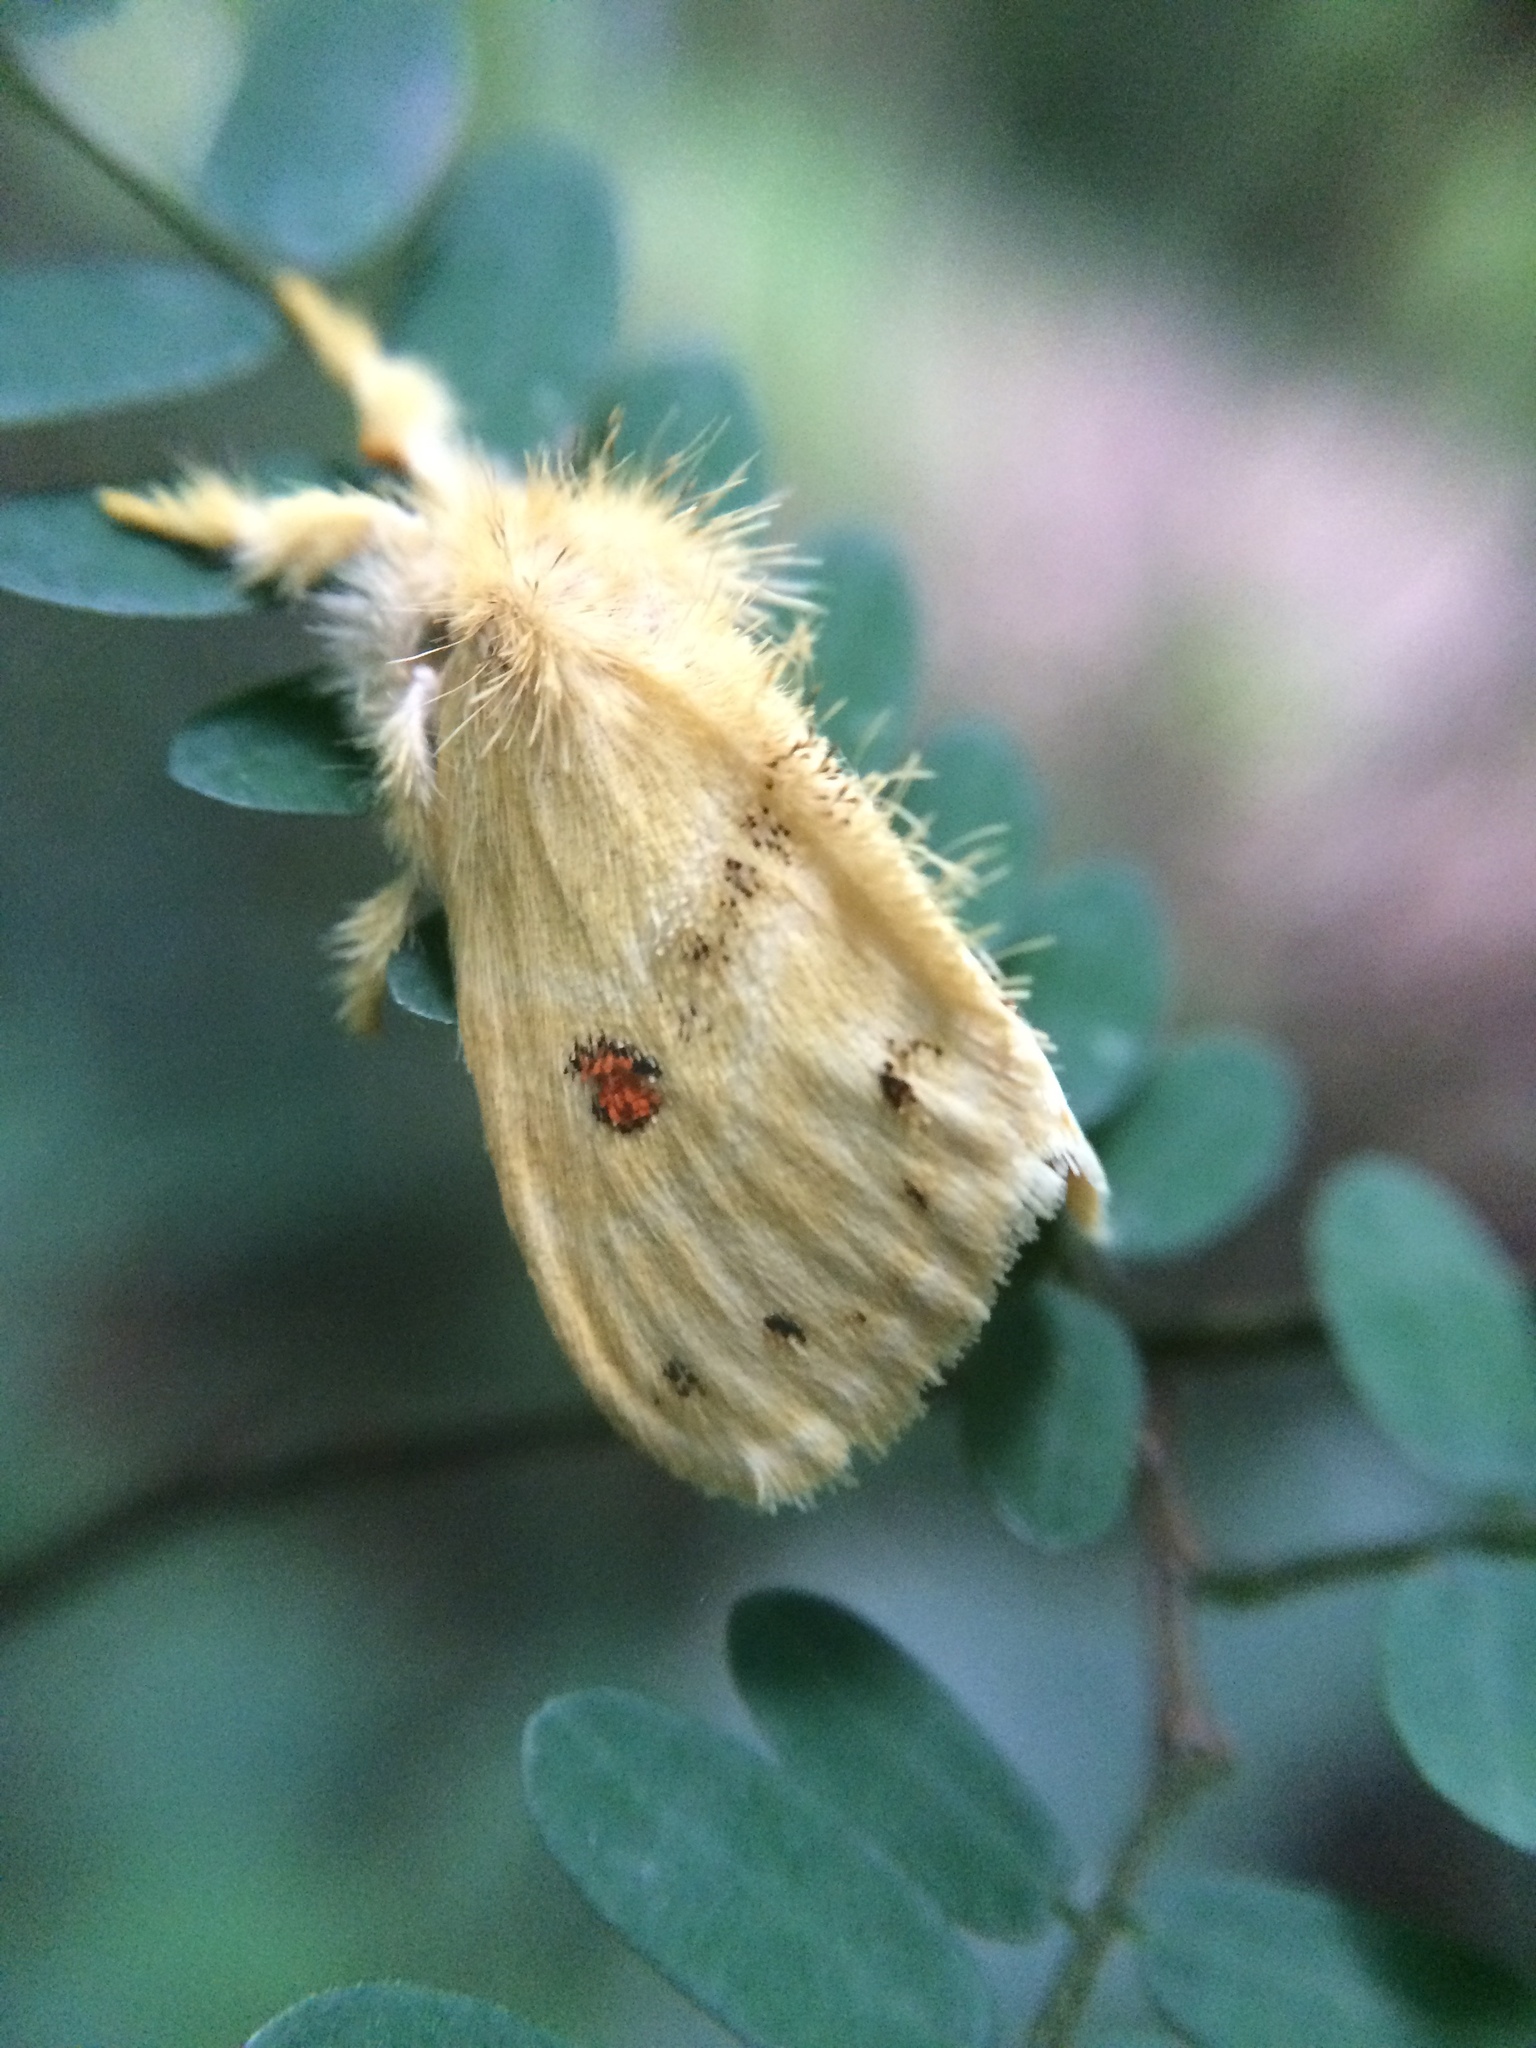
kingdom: Animalia
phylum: Arthropoda
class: Insecta
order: Lepidoptera
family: Erebidae
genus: Euproctis
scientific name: Euproctis bicolor
